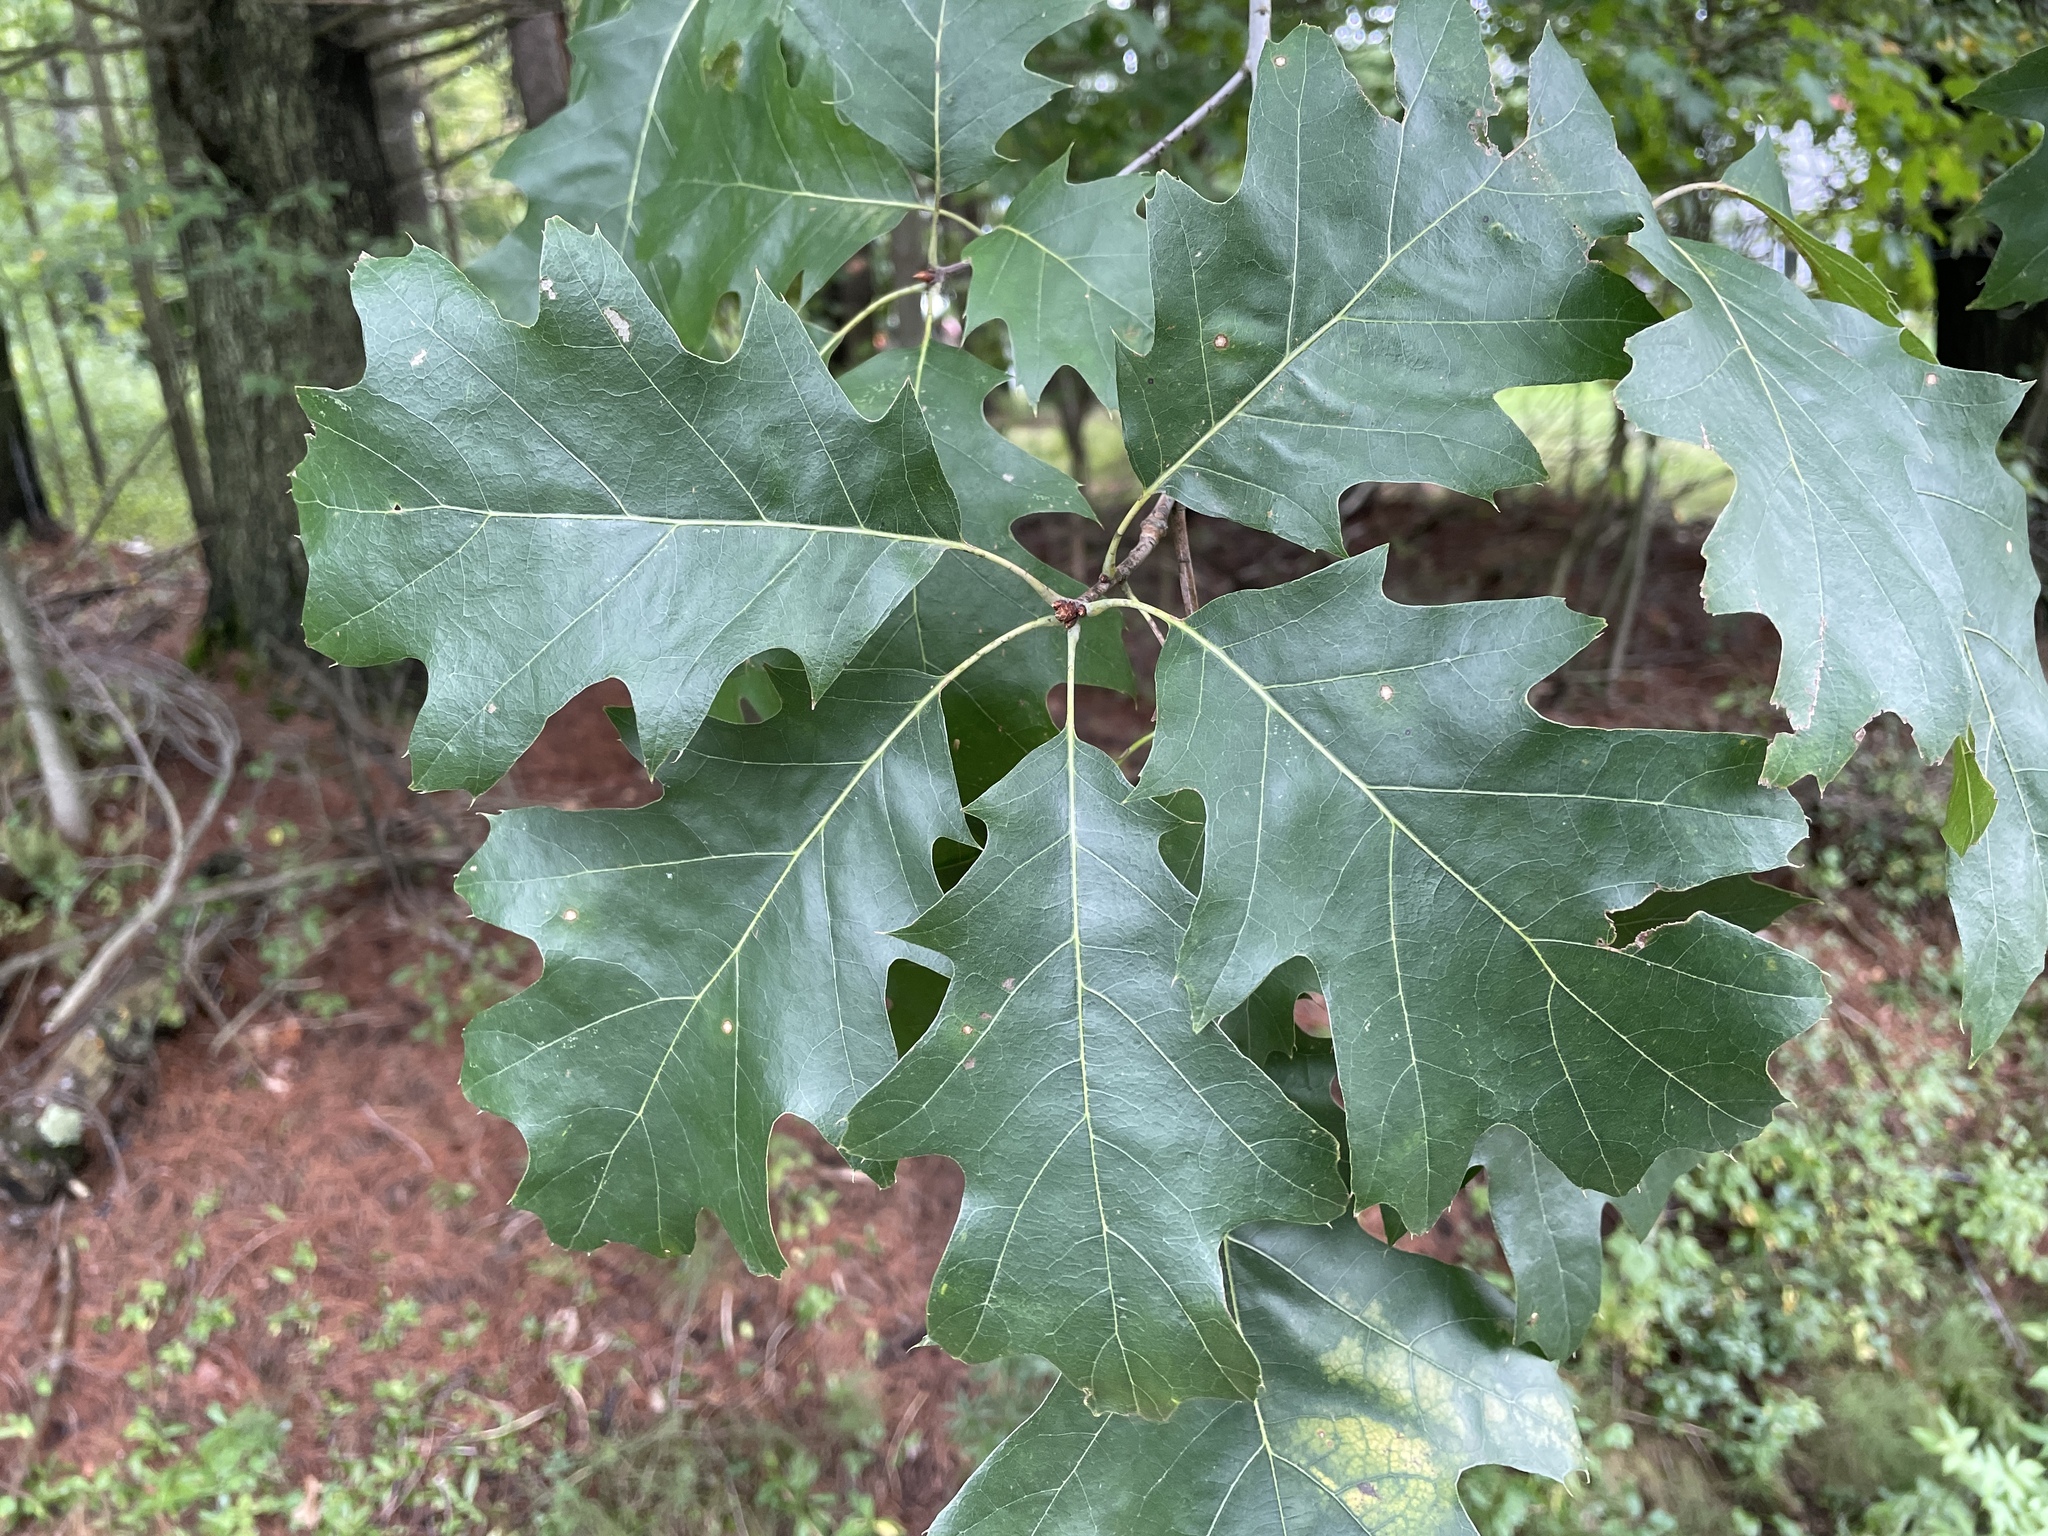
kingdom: Plantae
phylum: Tracheophyta
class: Magnoliopsida
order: Fagales
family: Fagaceae
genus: Quercus
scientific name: Quercus rubra
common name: Red oak
